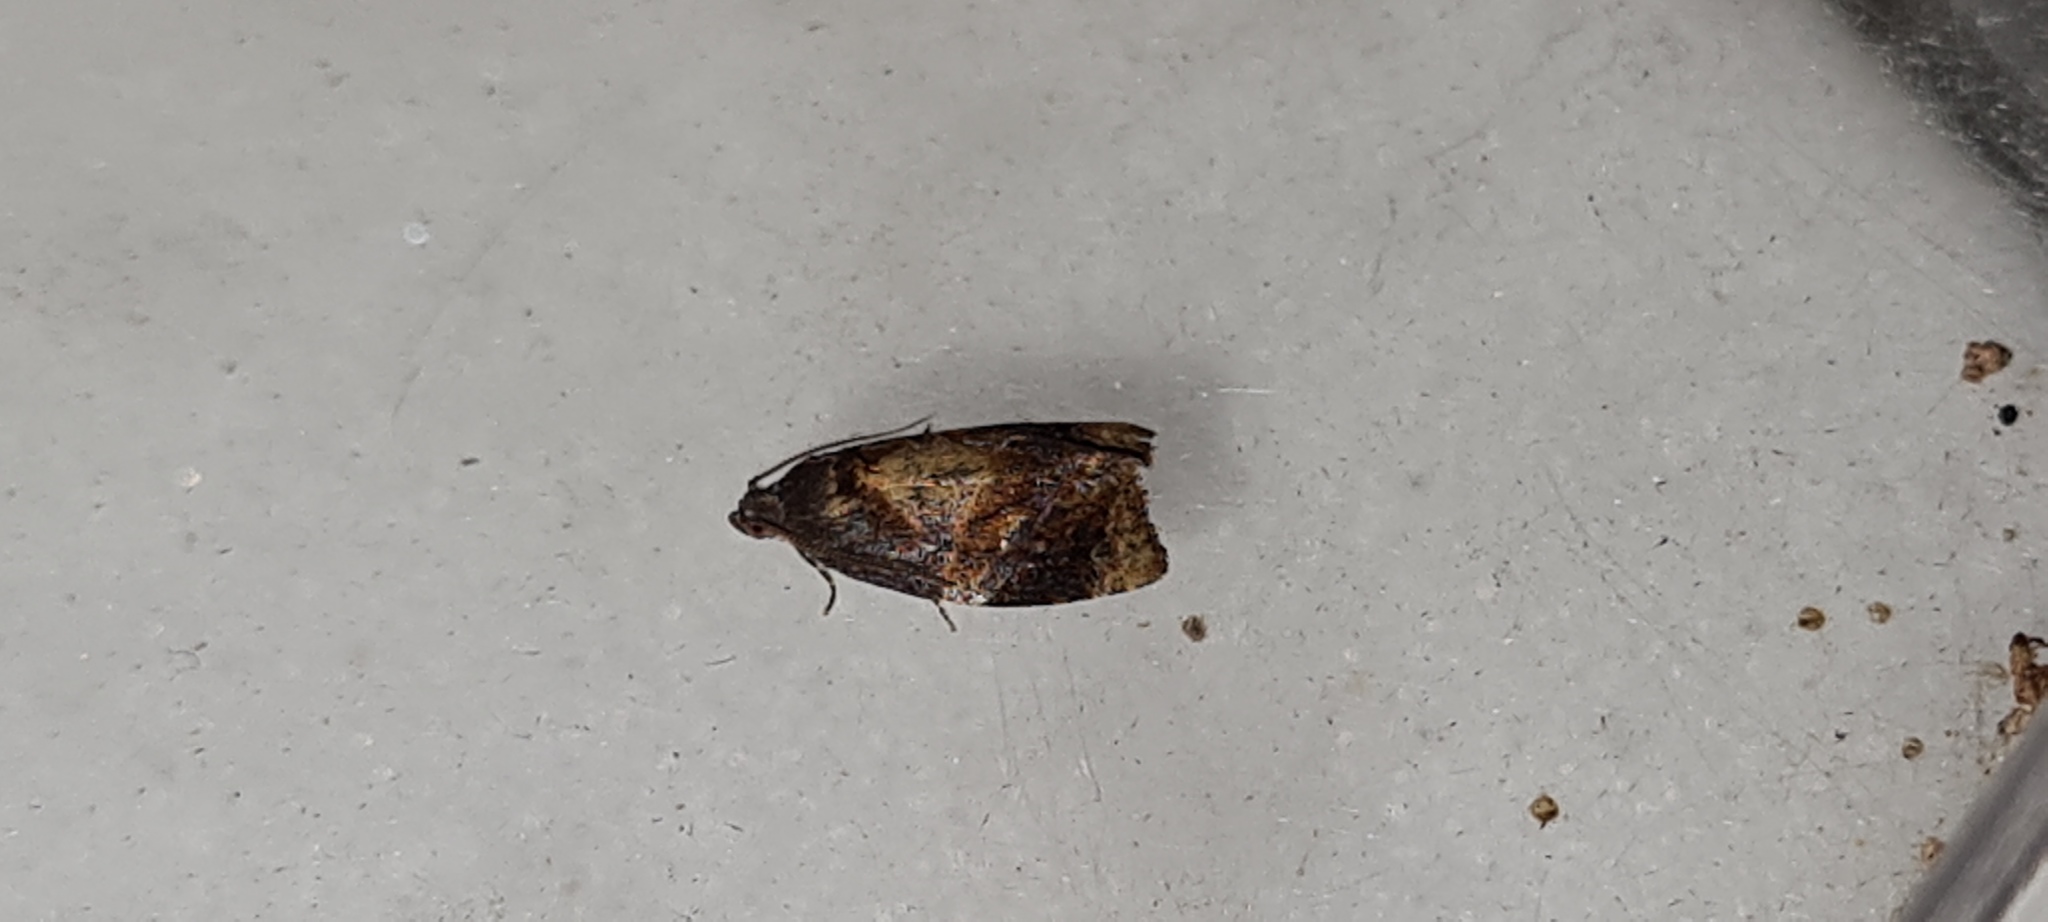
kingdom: Animalia
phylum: Arthropoda
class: Insecta
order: Lepidoptera
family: Tortricidae
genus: Ditula
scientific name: Ditula angustiorana
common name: Red-barred tortrix
